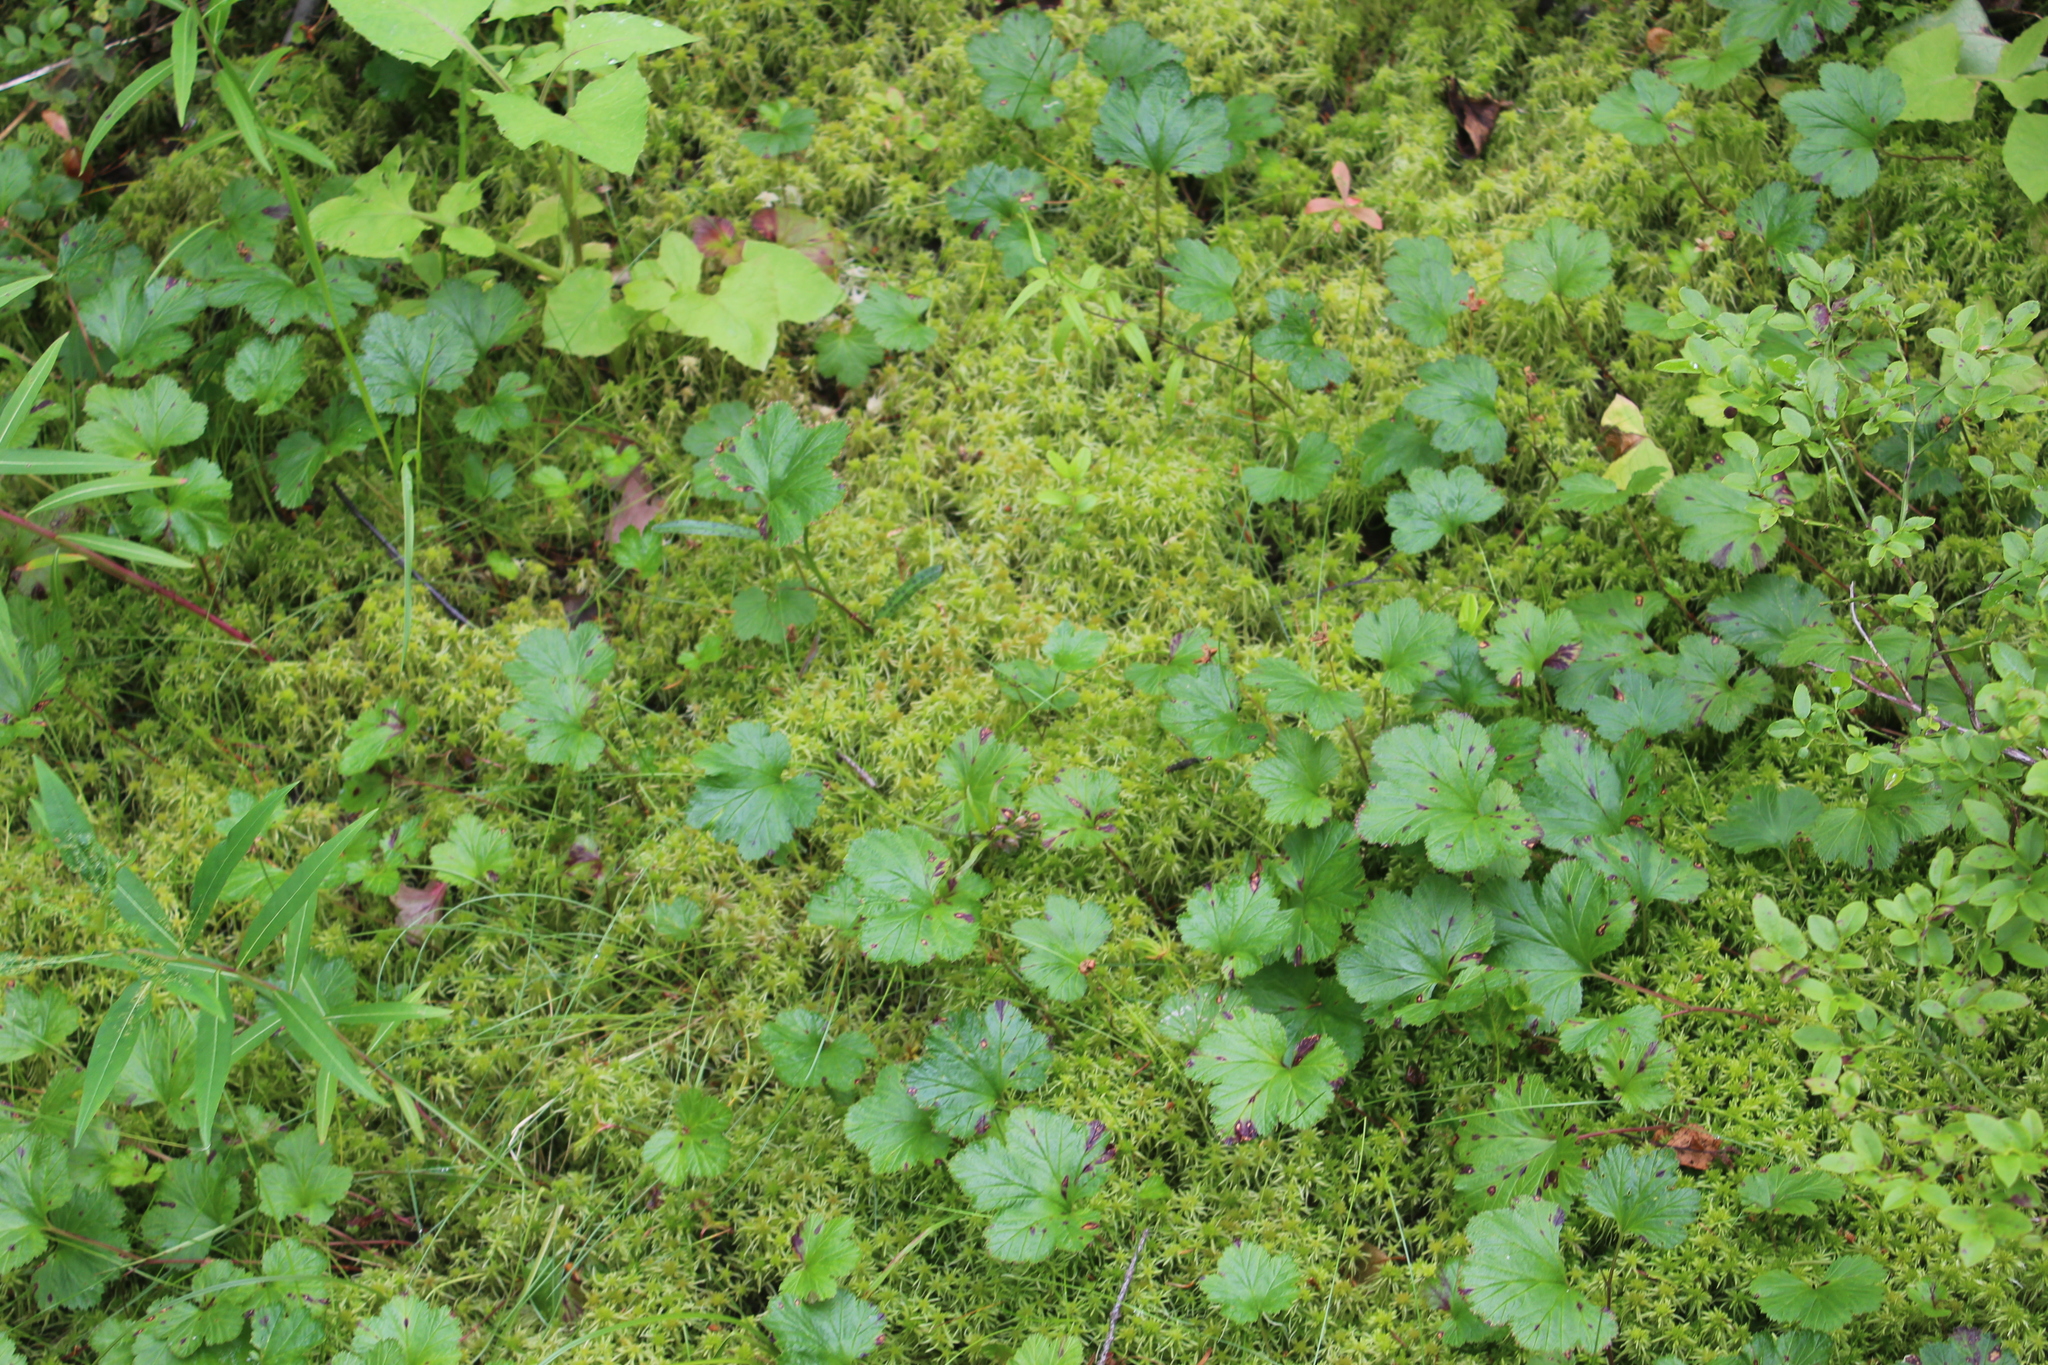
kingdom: Plantae
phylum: Tracheophyta
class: Magnoliopsida
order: Rosales
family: Rosaceae
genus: Rubus
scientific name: Rubus chamaemorus
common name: Cloudberry
